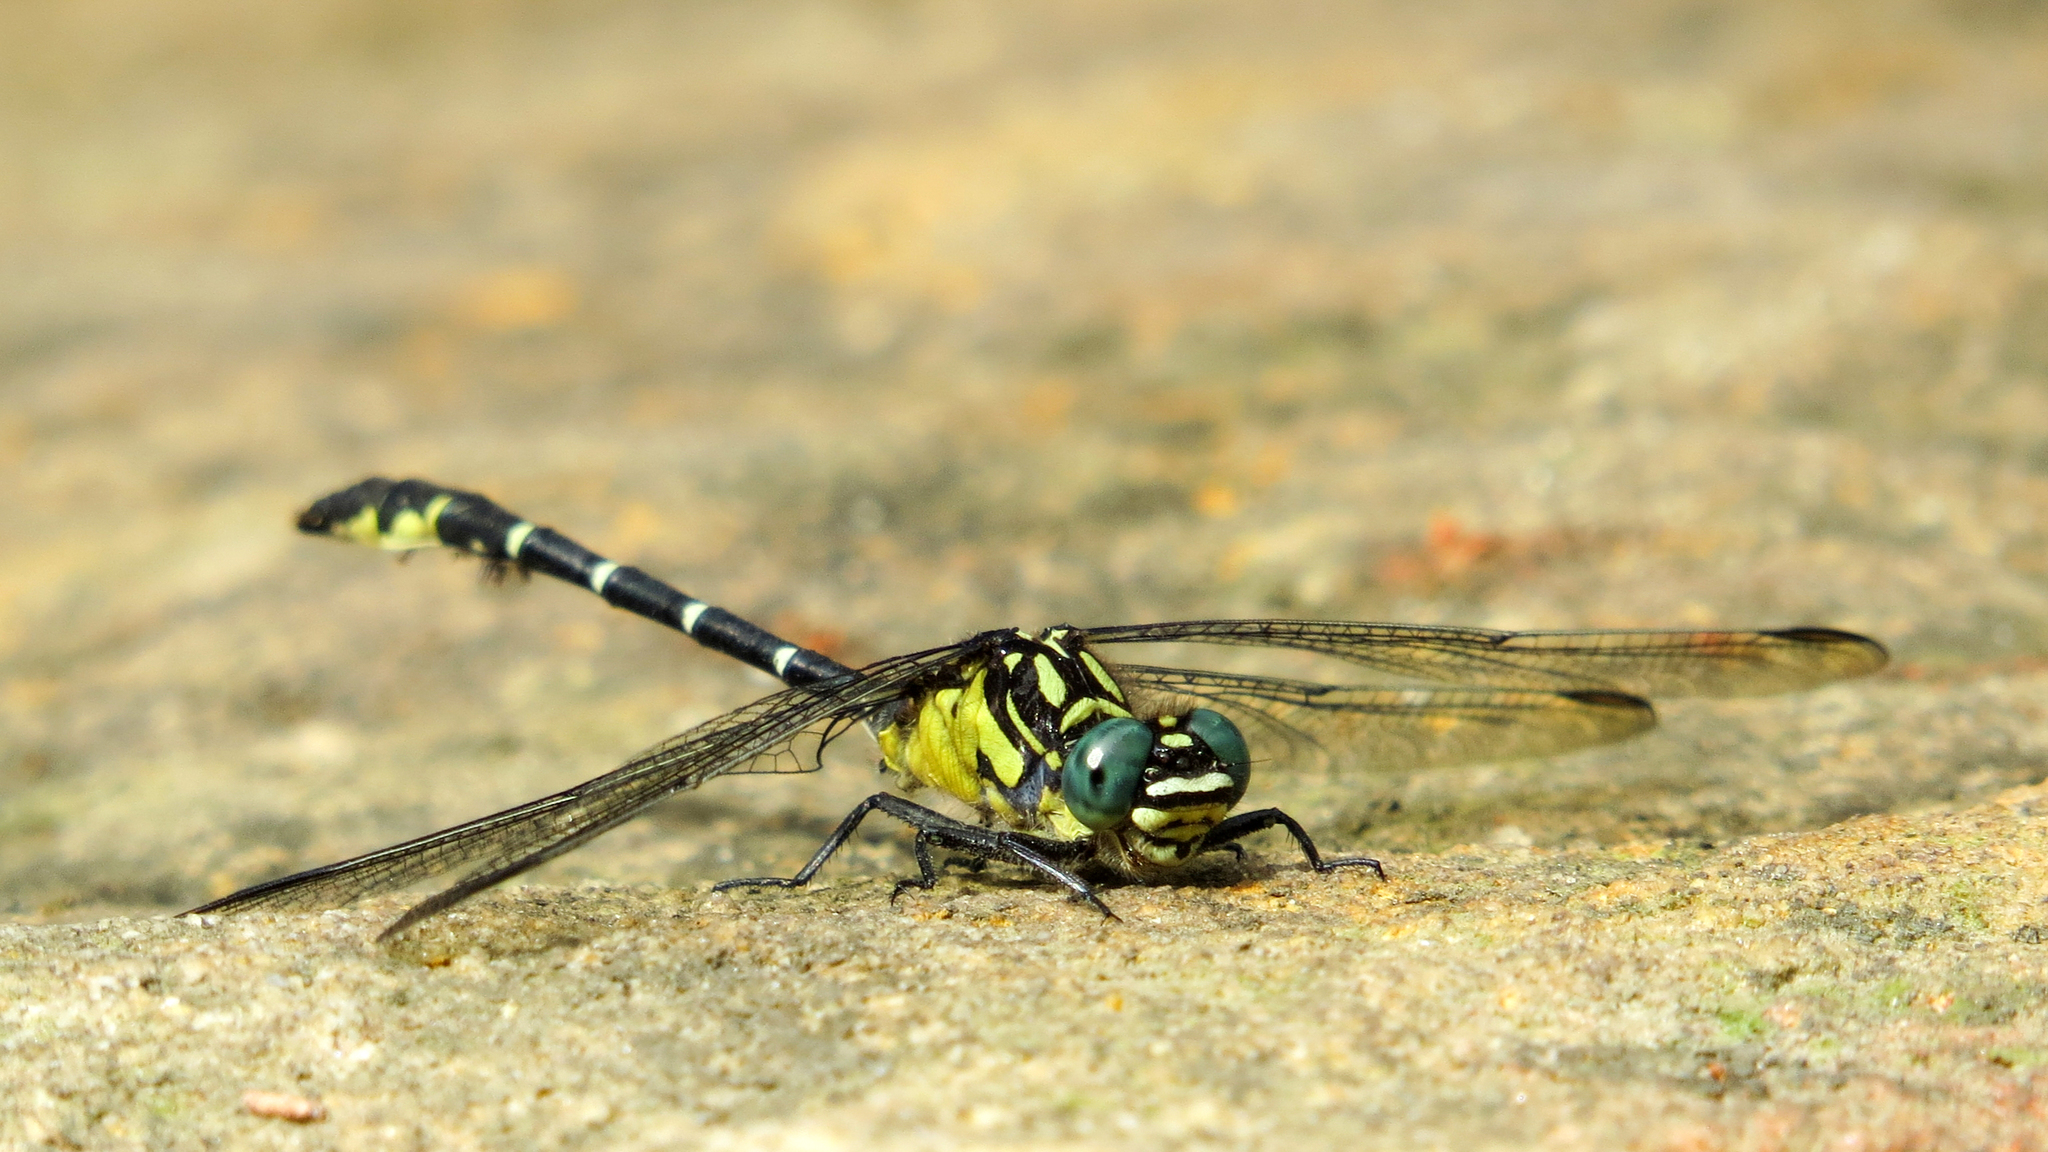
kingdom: Animalia
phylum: Arthropoda
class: Insecta
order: Odonata
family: Gomphidae
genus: Hemigomphus
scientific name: Hemigomphus gouldii
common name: Southern vicetail
